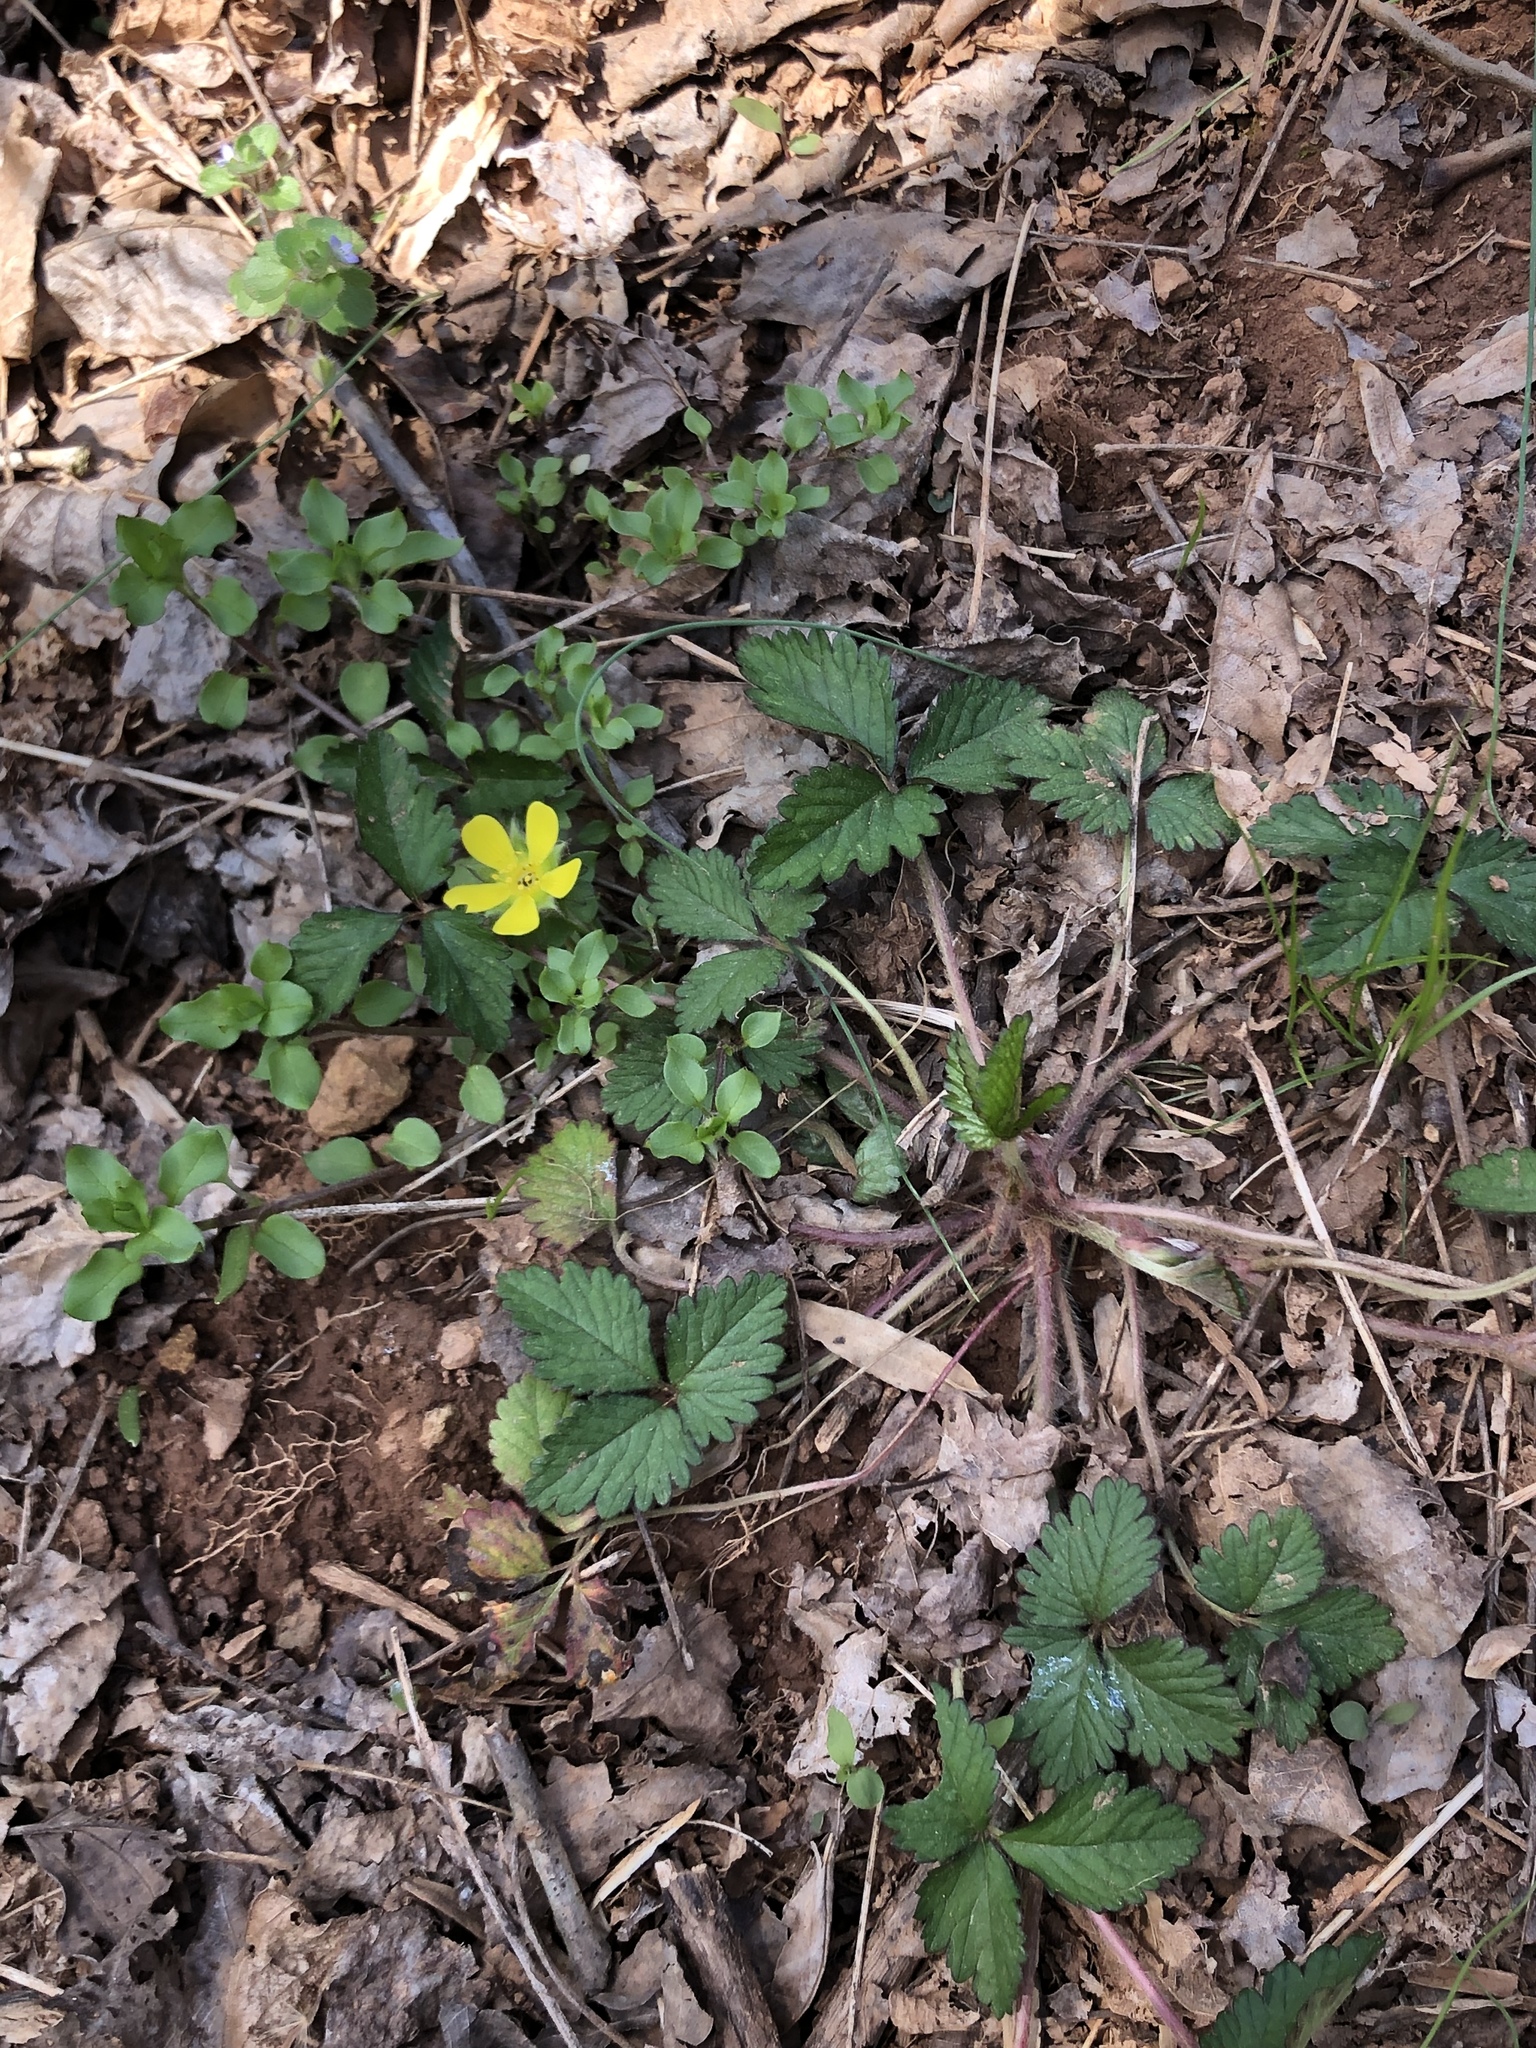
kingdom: Plantae
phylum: Tracheophyta
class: Magnoliopsida
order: Rosales
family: Rosaceae
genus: Potentilla
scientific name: Potentilla indica
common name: Yellow-flowered strawberry
